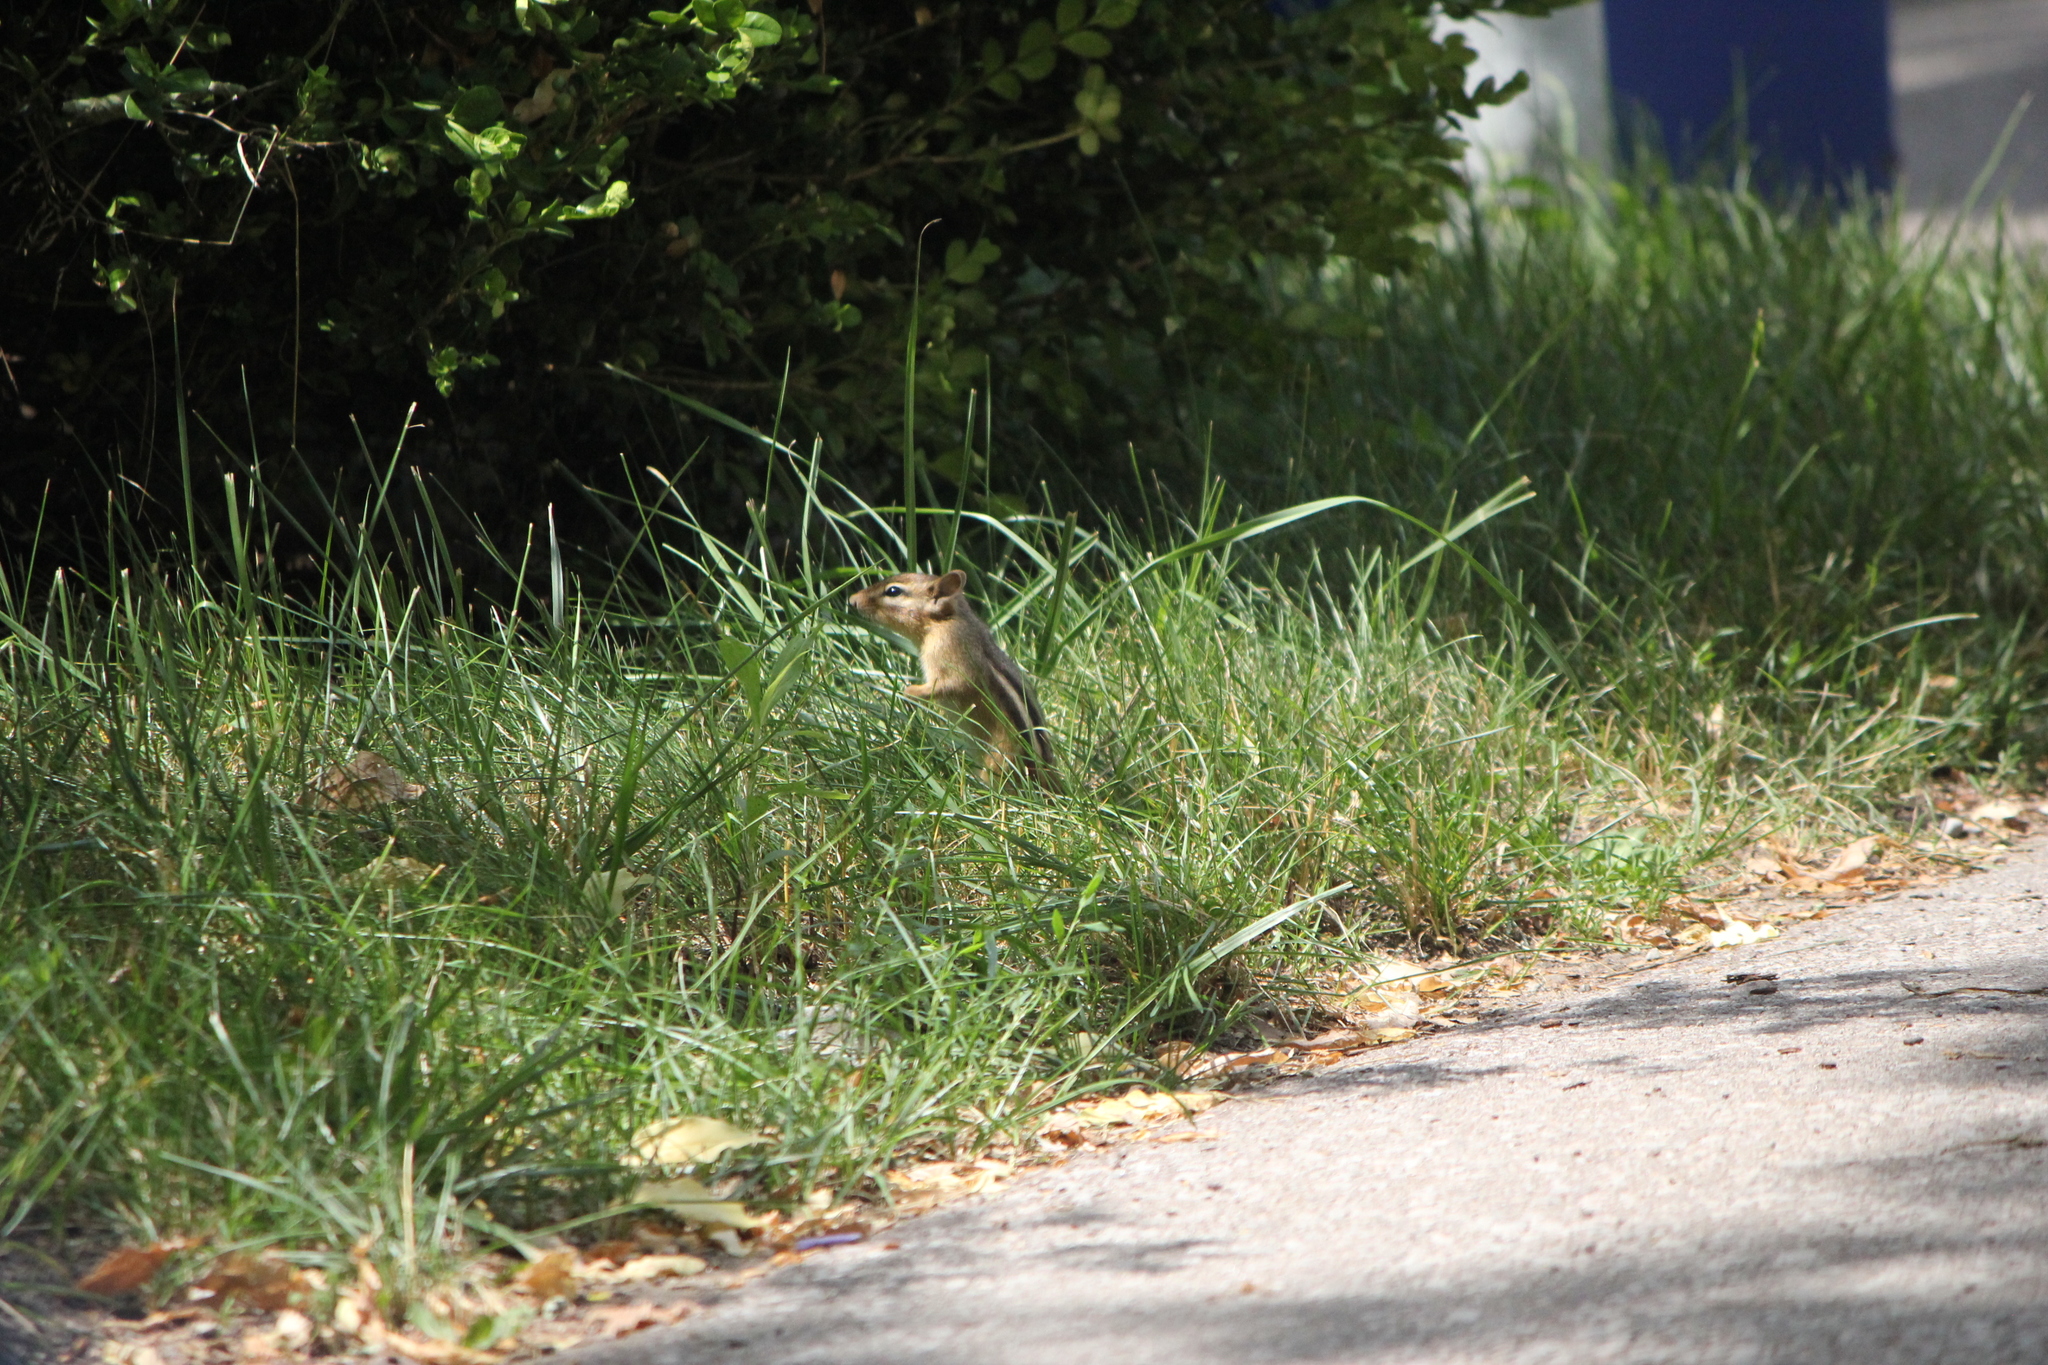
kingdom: Animalia
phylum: Chordata
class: Mammalia
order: Rodentia
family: Sciuridae
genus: Tamias
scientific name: Tamias striatus
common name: Eastern chipmunk
